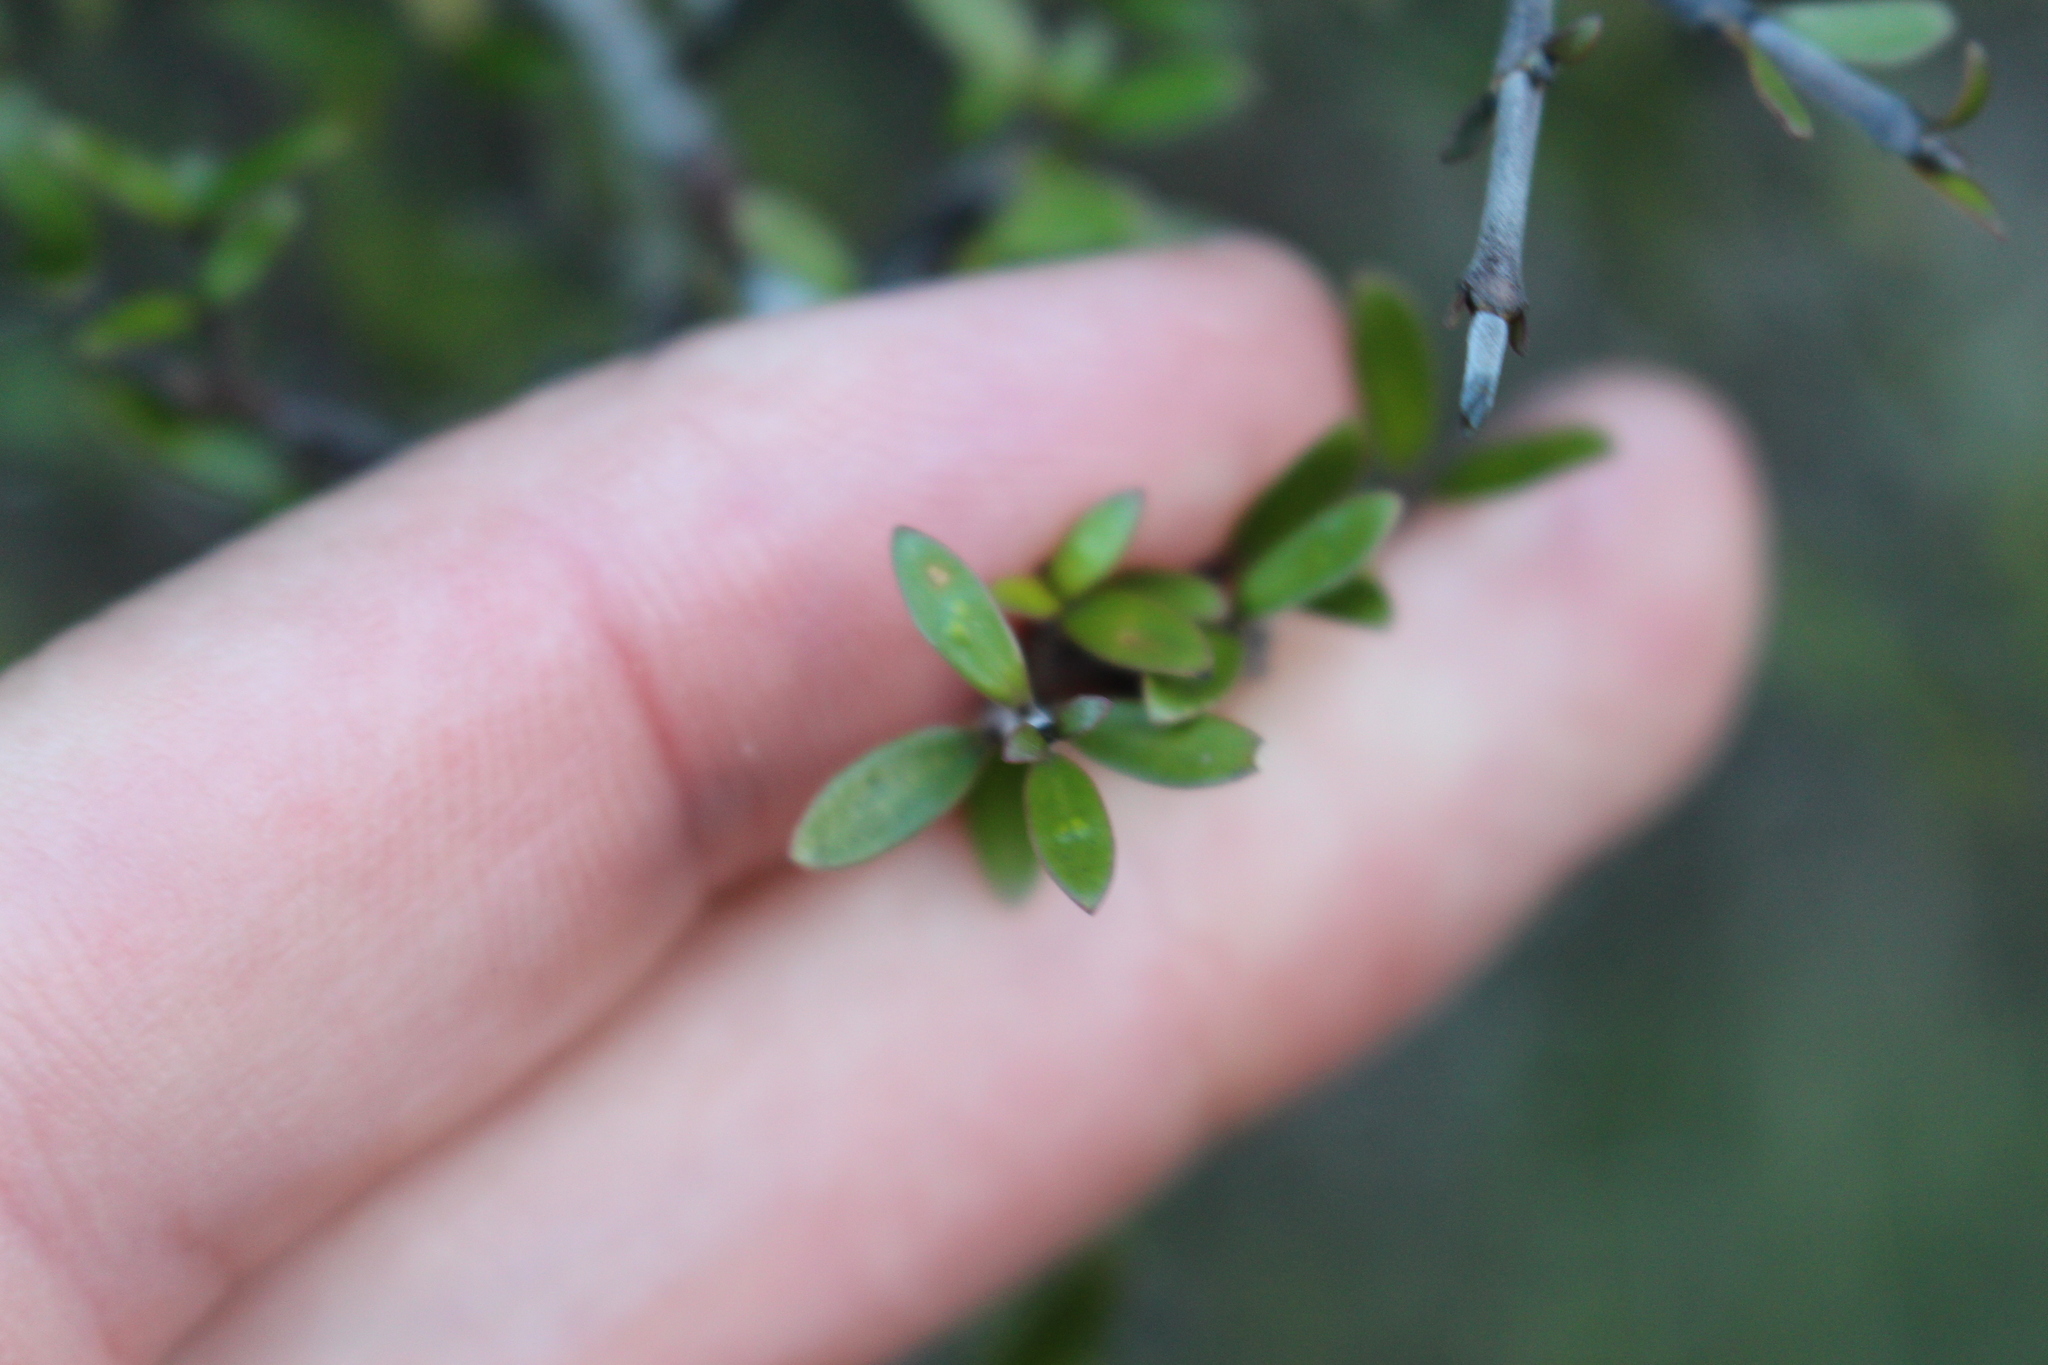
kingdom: Plantae
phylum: Tracheophyta
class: Magnoliopsida
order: Gentianales
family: Rubiaceae
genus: Coprosma
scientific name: Coprosma propinqua
